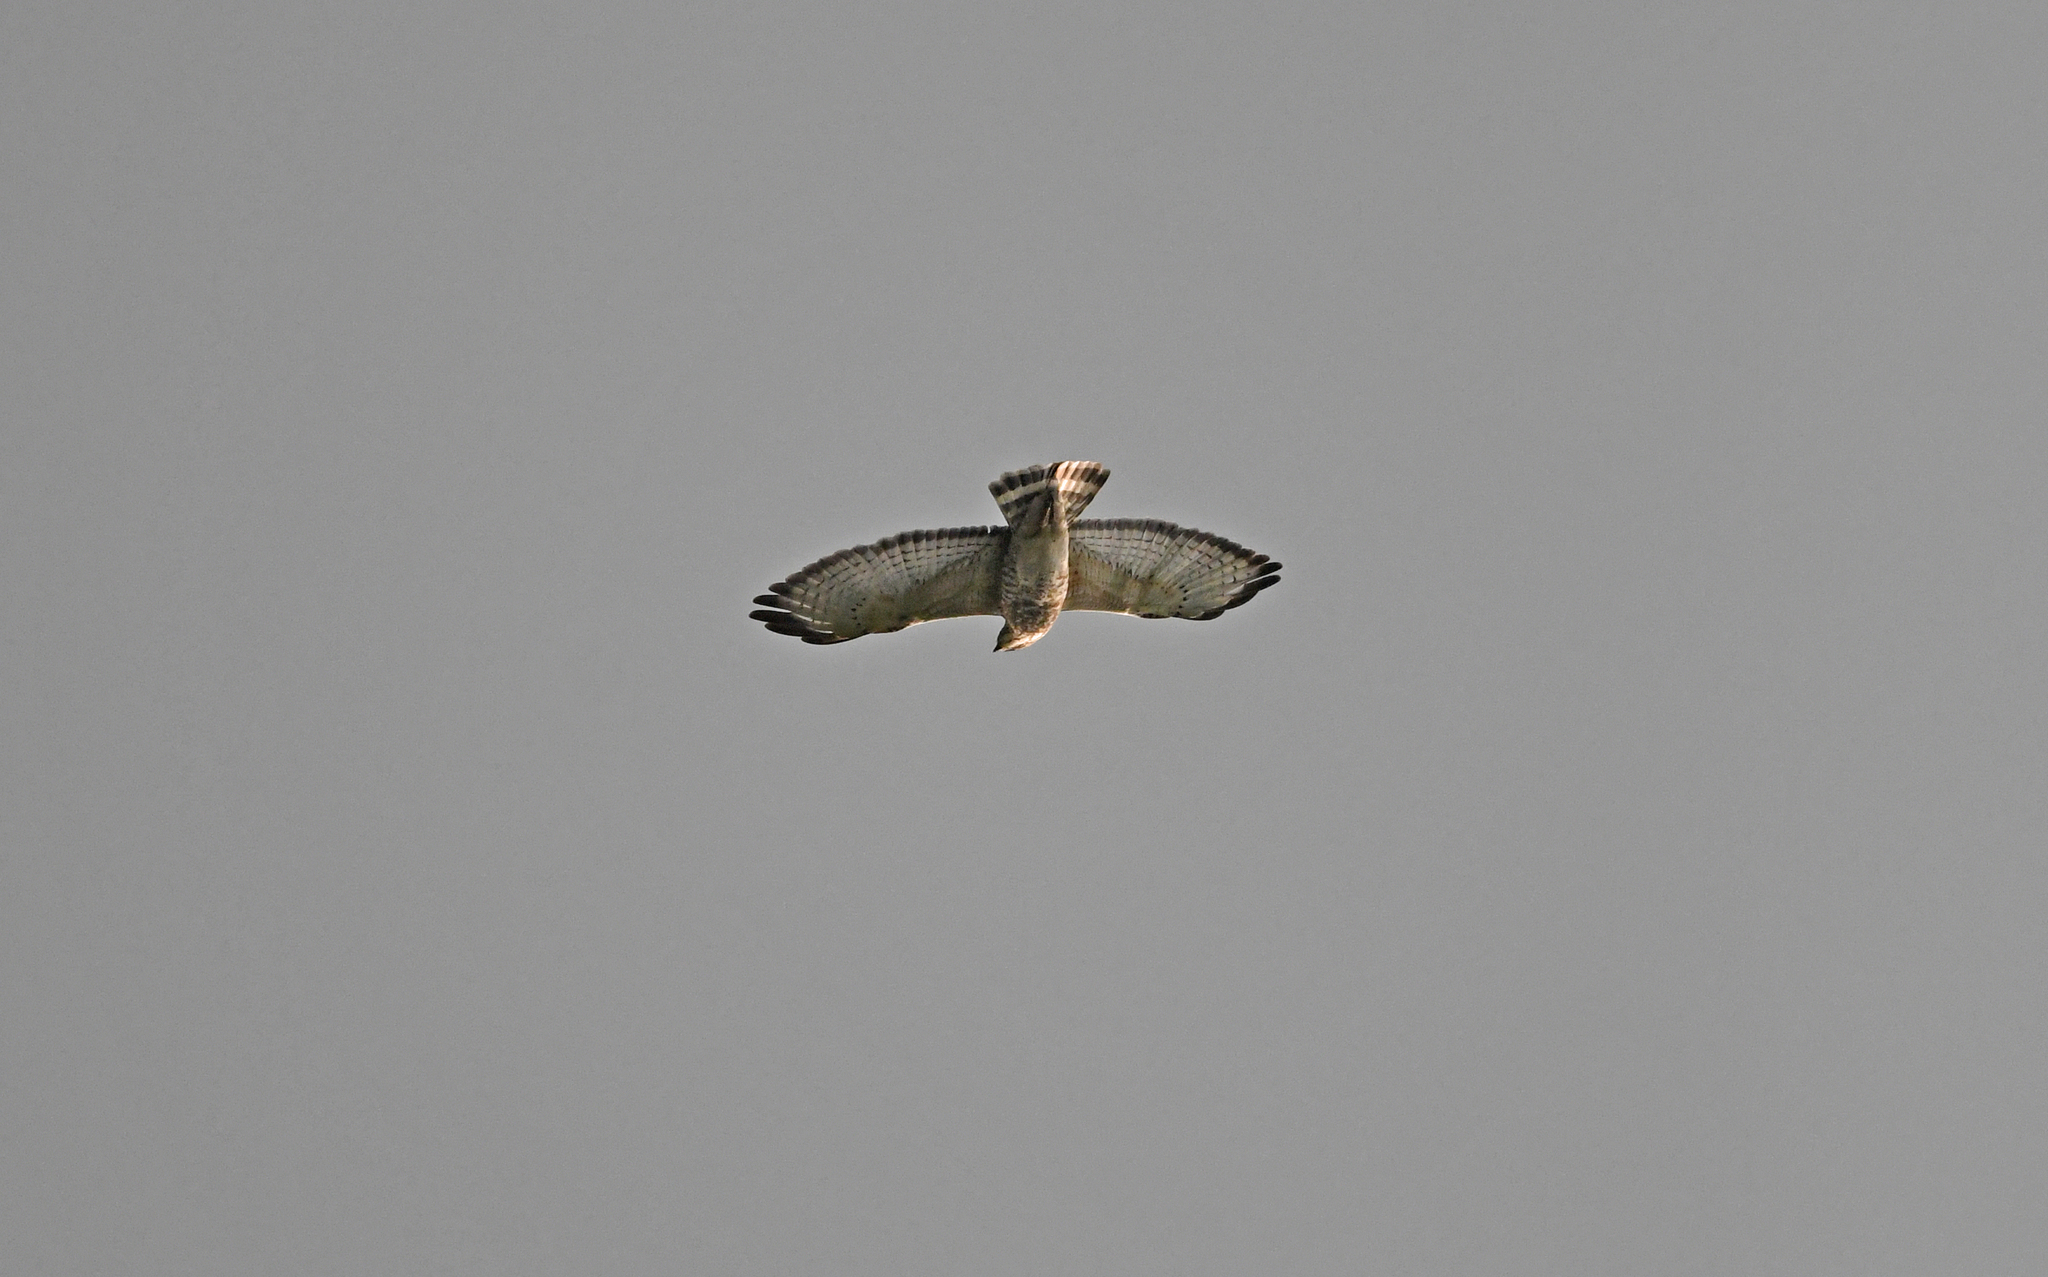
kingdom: Animalia
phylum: Chordata
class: Aves
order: Accipitriformes
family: Accipitridae
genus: Buteo
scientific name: Buteo platypterus
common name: Broad-winged hawk
